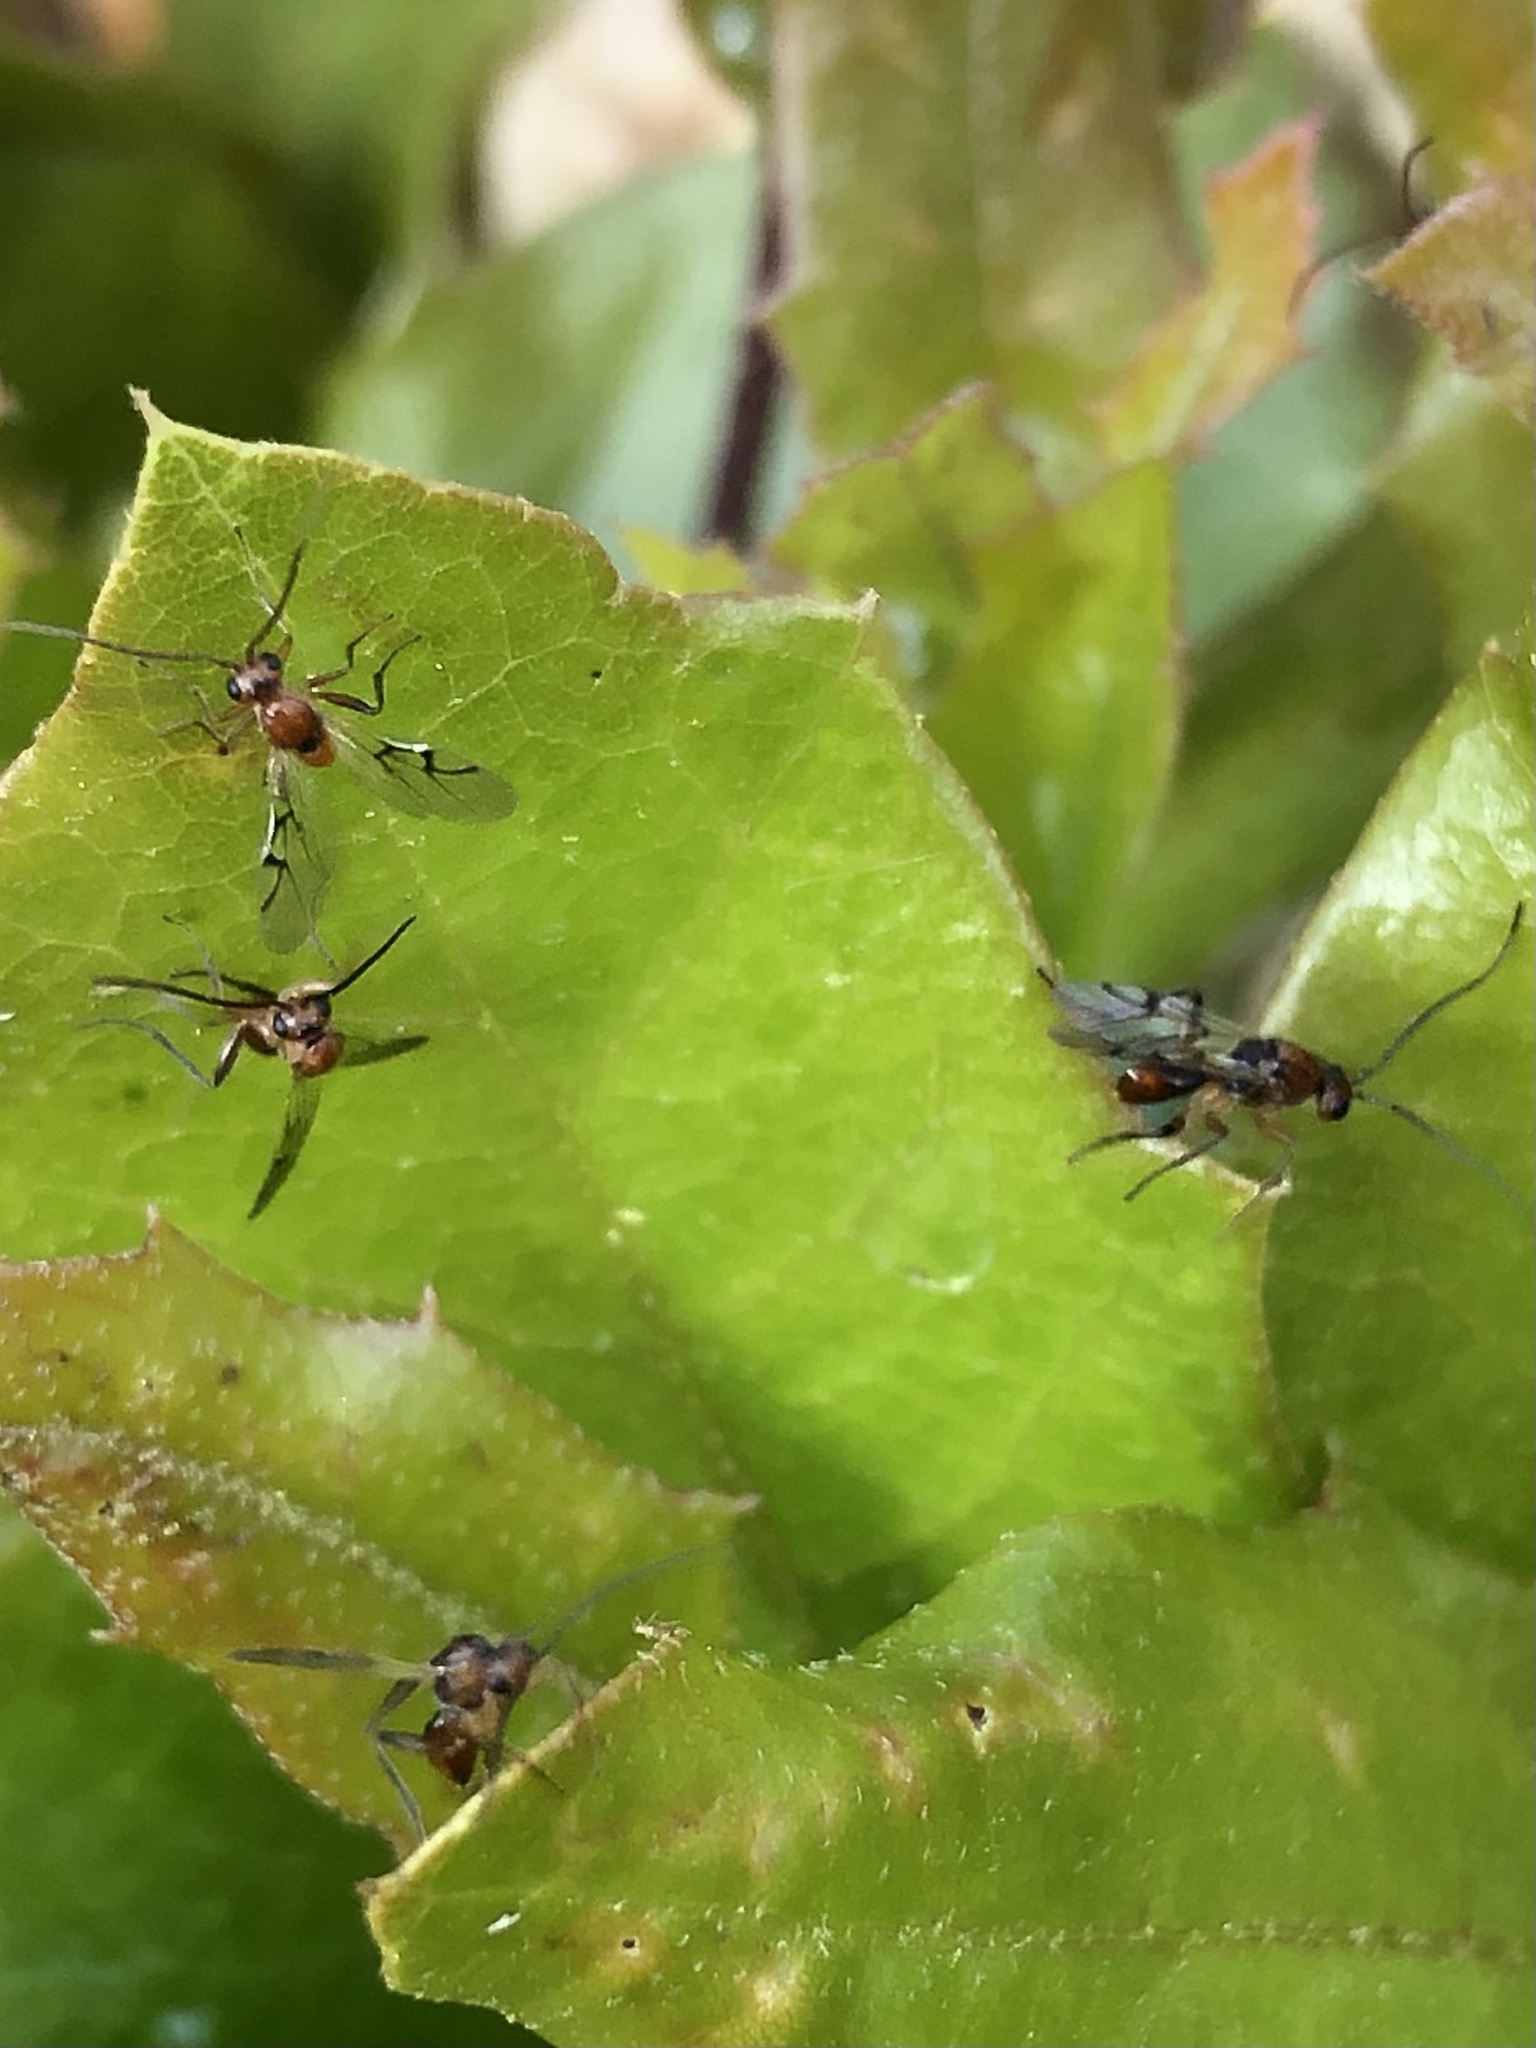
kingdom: Animalia
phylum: Arthropoda
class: Insecta
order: Hymenoptera
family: Cynipidae
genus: Belonocnema
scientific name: Belonocnema kinseyi
